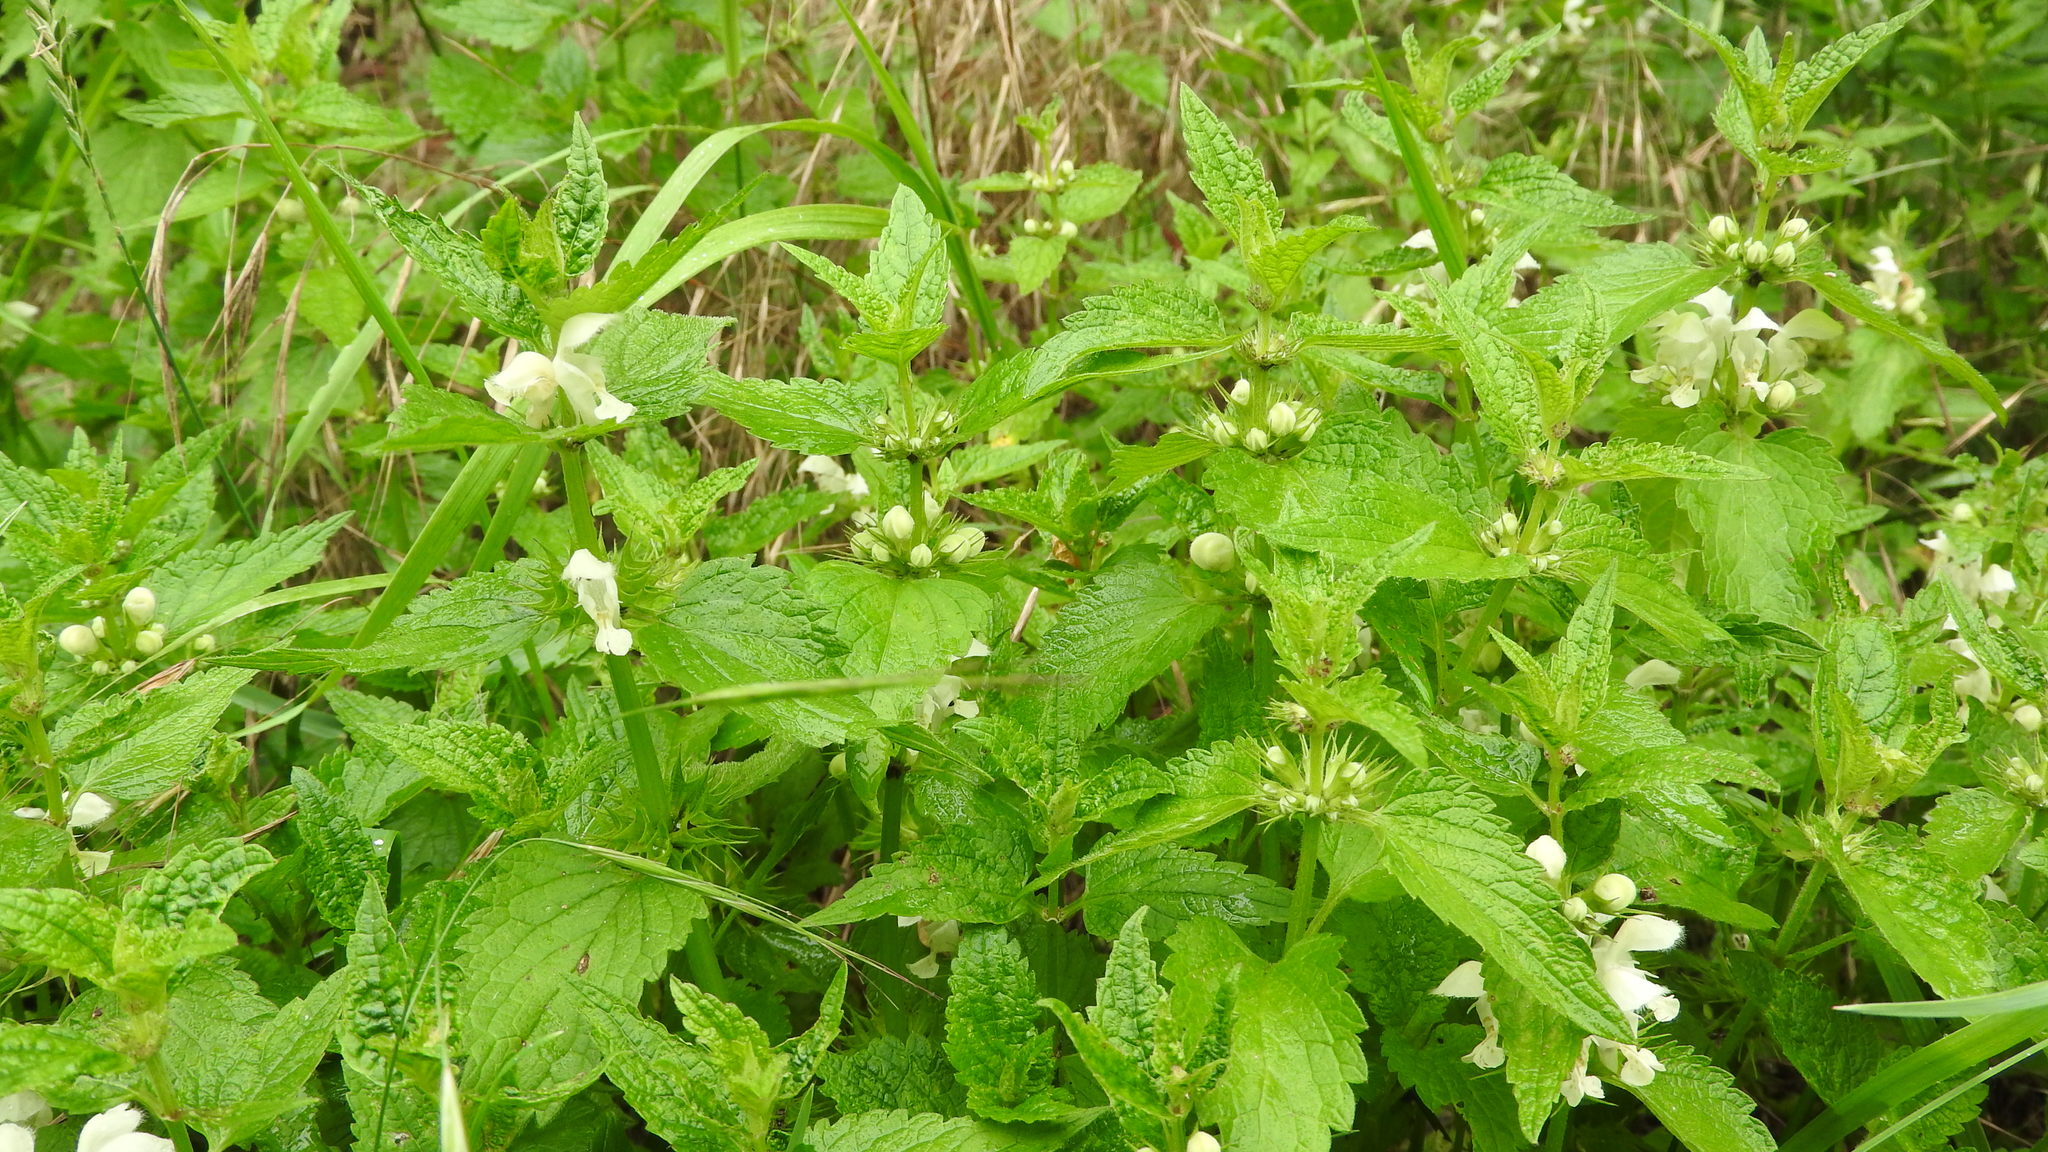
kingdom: Plantae
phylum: Tracheophyta
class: Magnoliopsida
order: Lamiales
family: Lamiaceae
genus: Lamium
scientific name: Lamium album
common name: White dead-nettle
